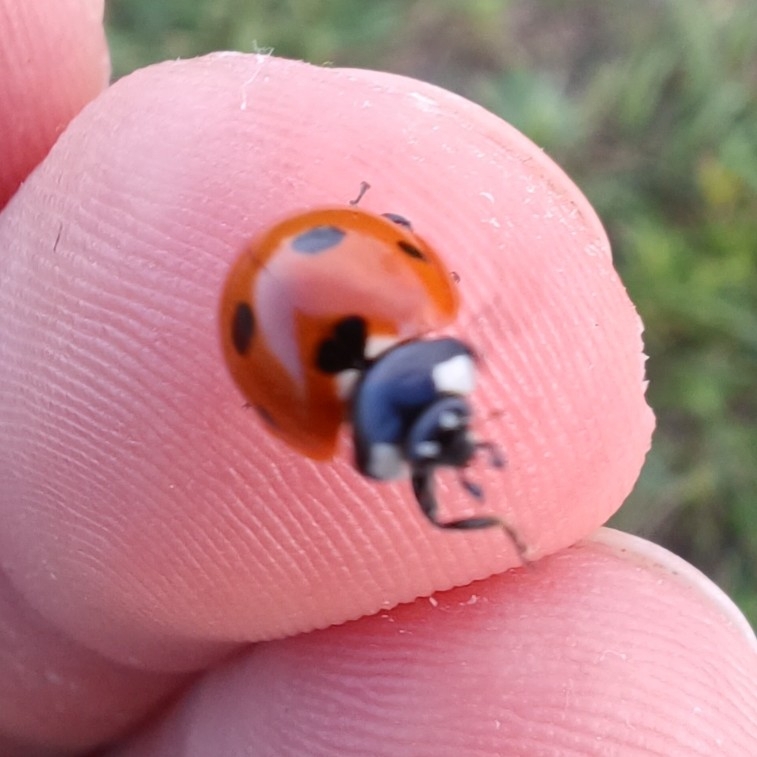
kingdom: Animalia
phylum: Arthropoda
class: Insecta
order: Coleoptera
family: Coccinellidae
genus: Coccinella
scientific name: Coccinella septempunctata
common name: Sevenspotted lady beetle
